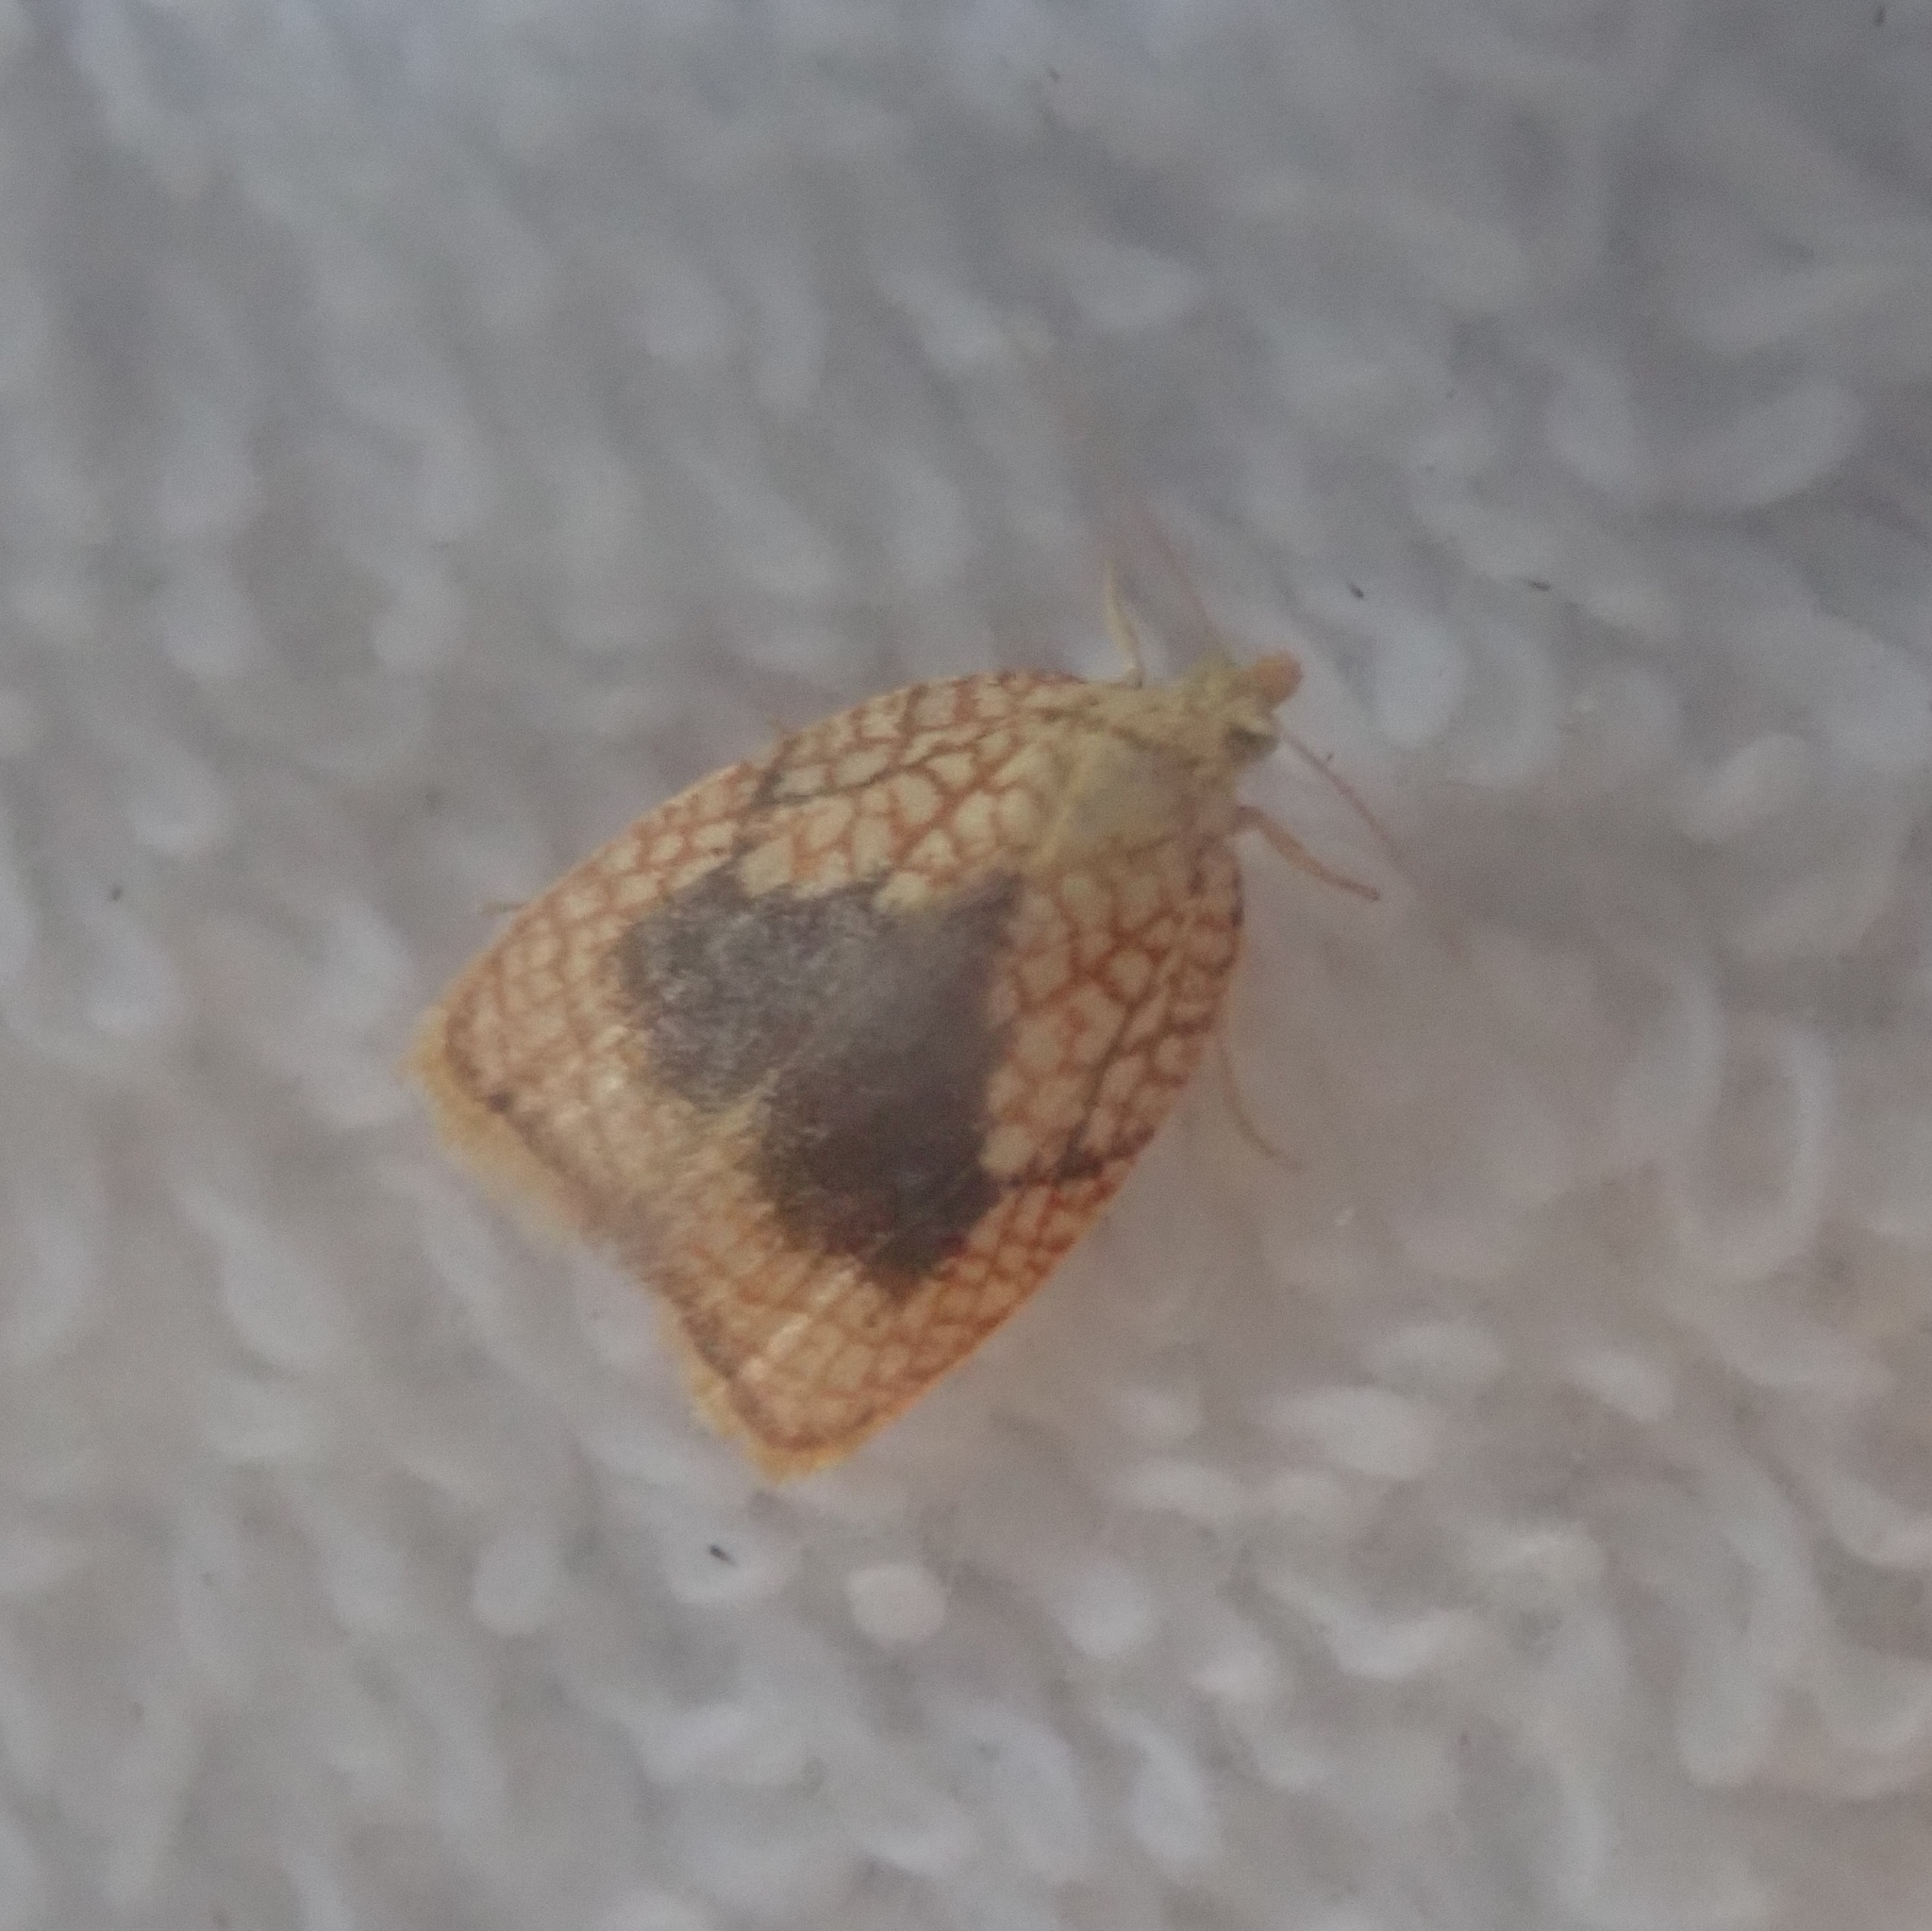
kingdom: Animalia
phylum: Arthropoda
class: Insecta
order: Lepidoptera
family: Tortricidae
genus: Acleris
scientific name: Acleris forsskaleana
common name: Maple button
